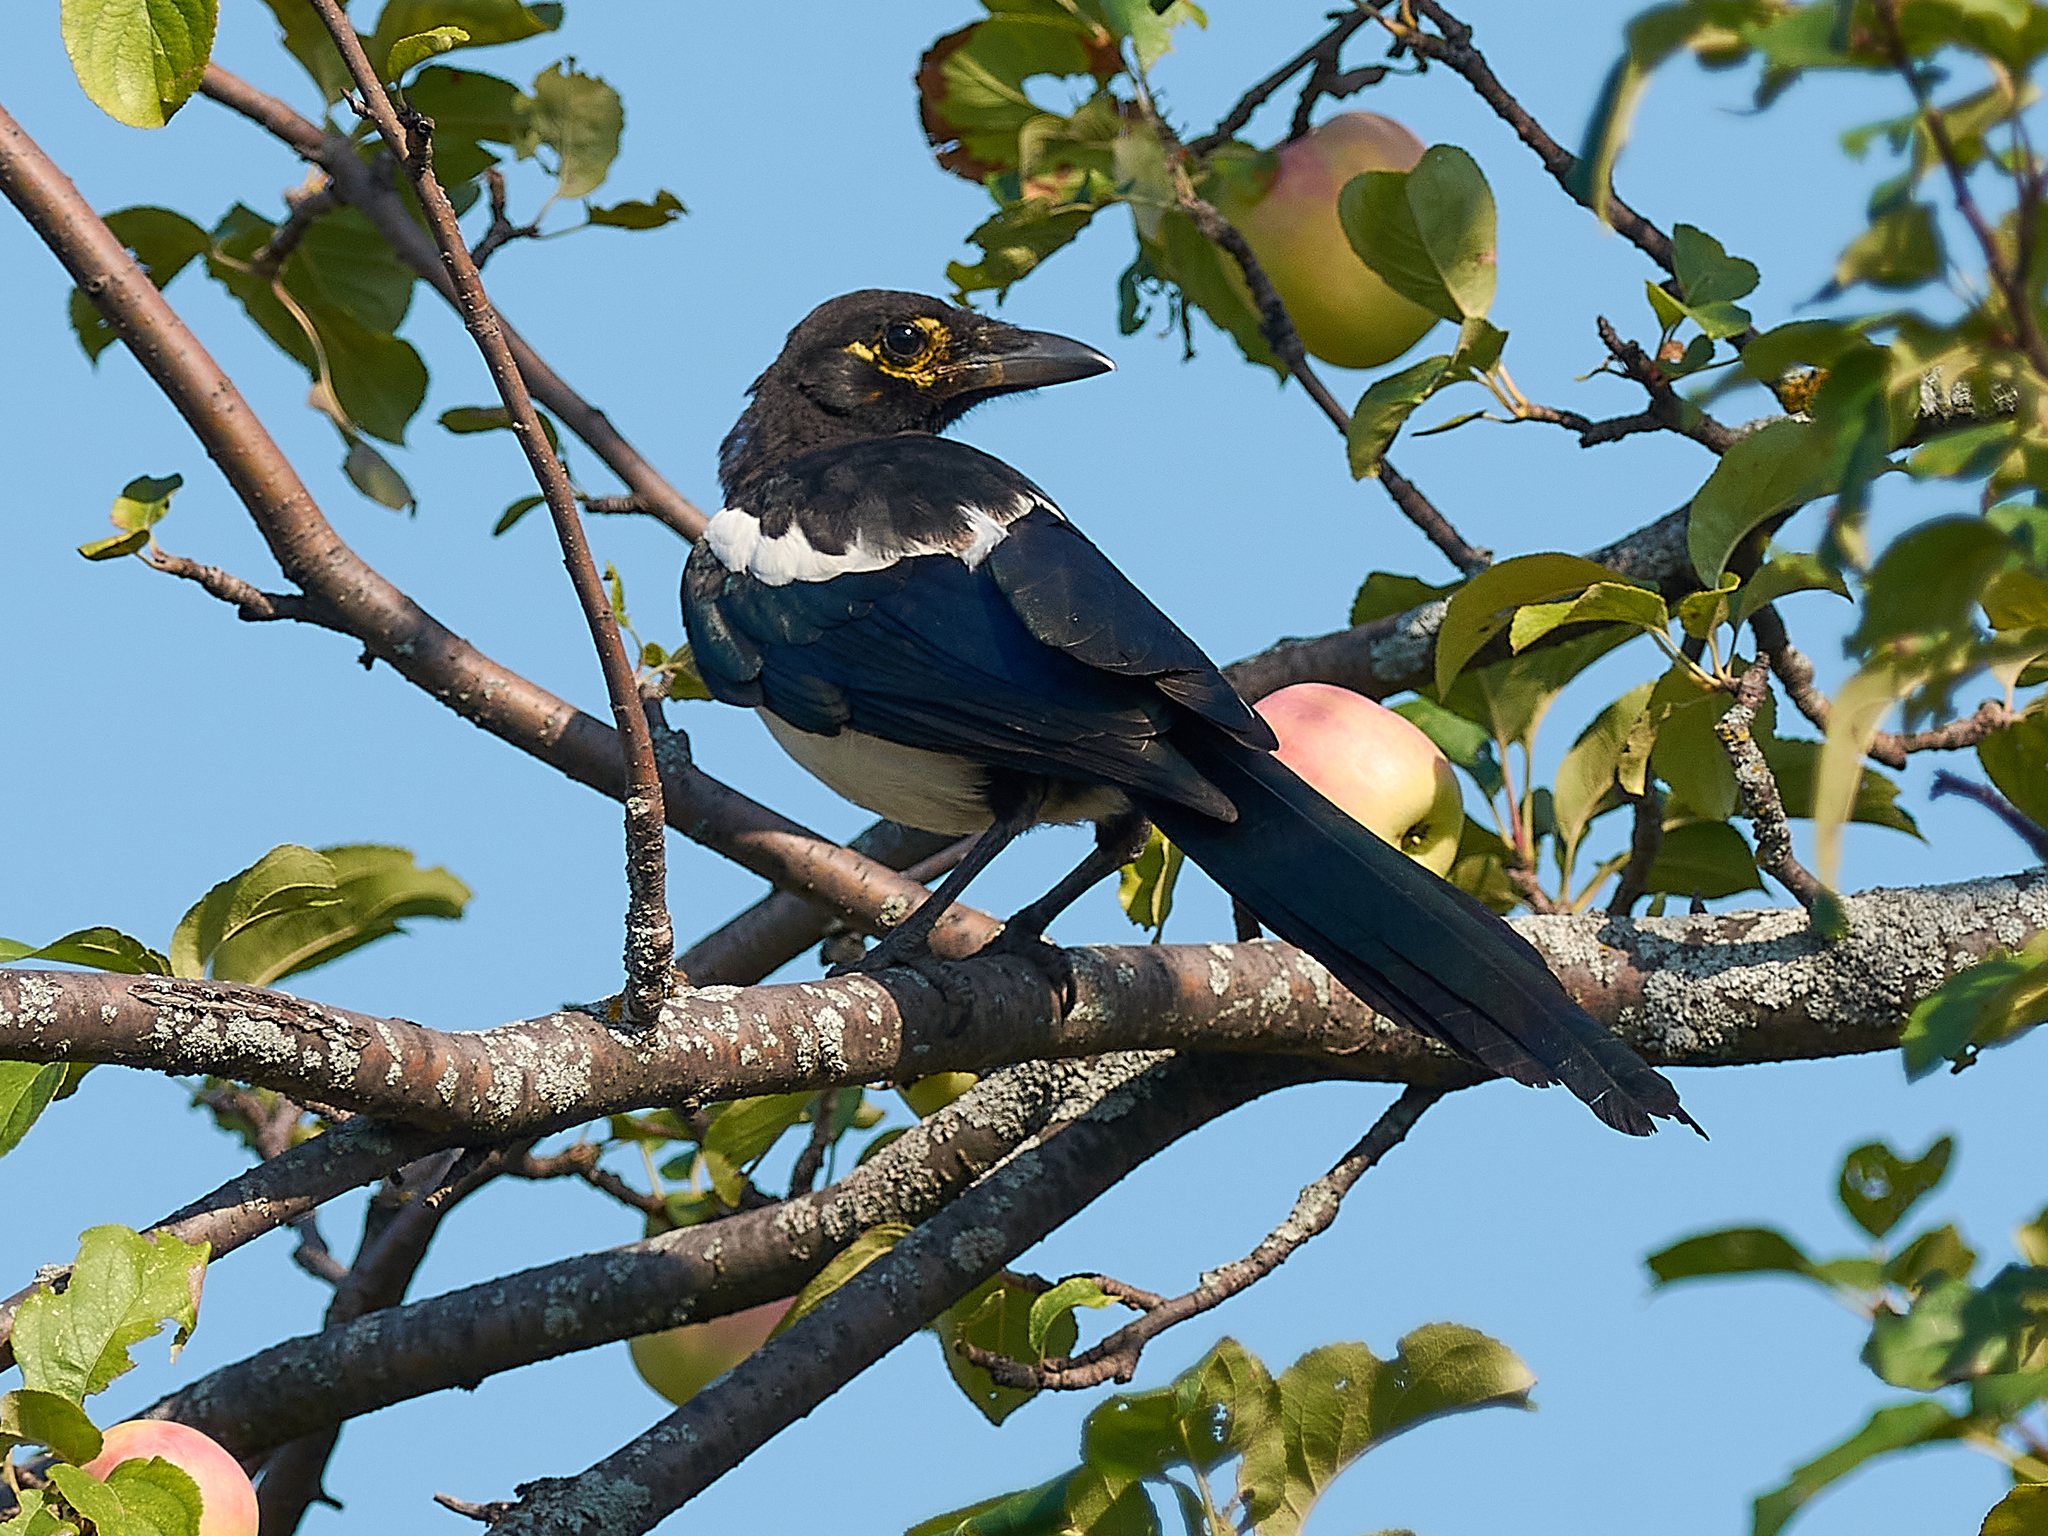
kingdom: Animalia
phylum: Chordata
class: Aves
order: Passeriformes
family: Corvidae
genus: Pica
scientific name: Pica pica
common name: Eurasian magpie
